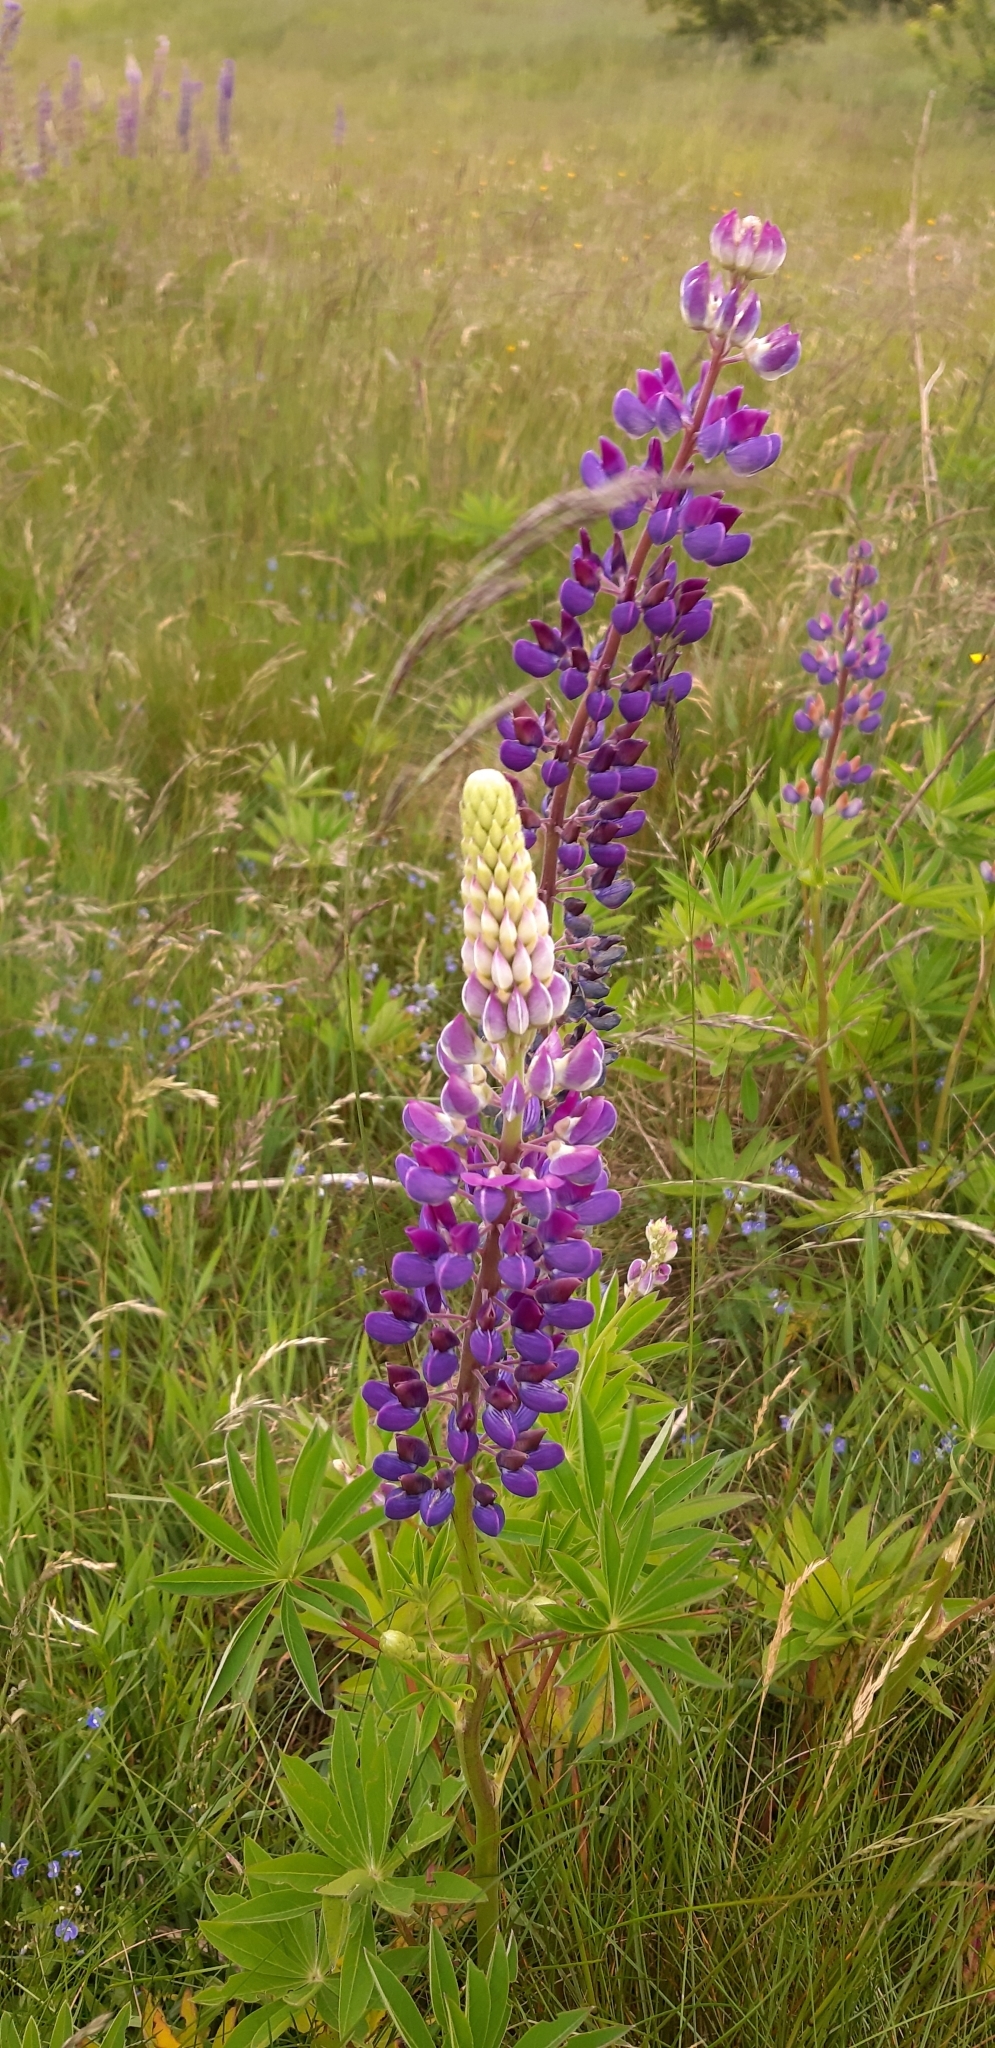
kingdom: Plantae
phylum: Tracheophyta
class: Magnoliopsida
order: Fabales
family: Fabaceae
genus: Lupinus
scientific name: Lupinus polyphyllus
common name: Garden lupin
